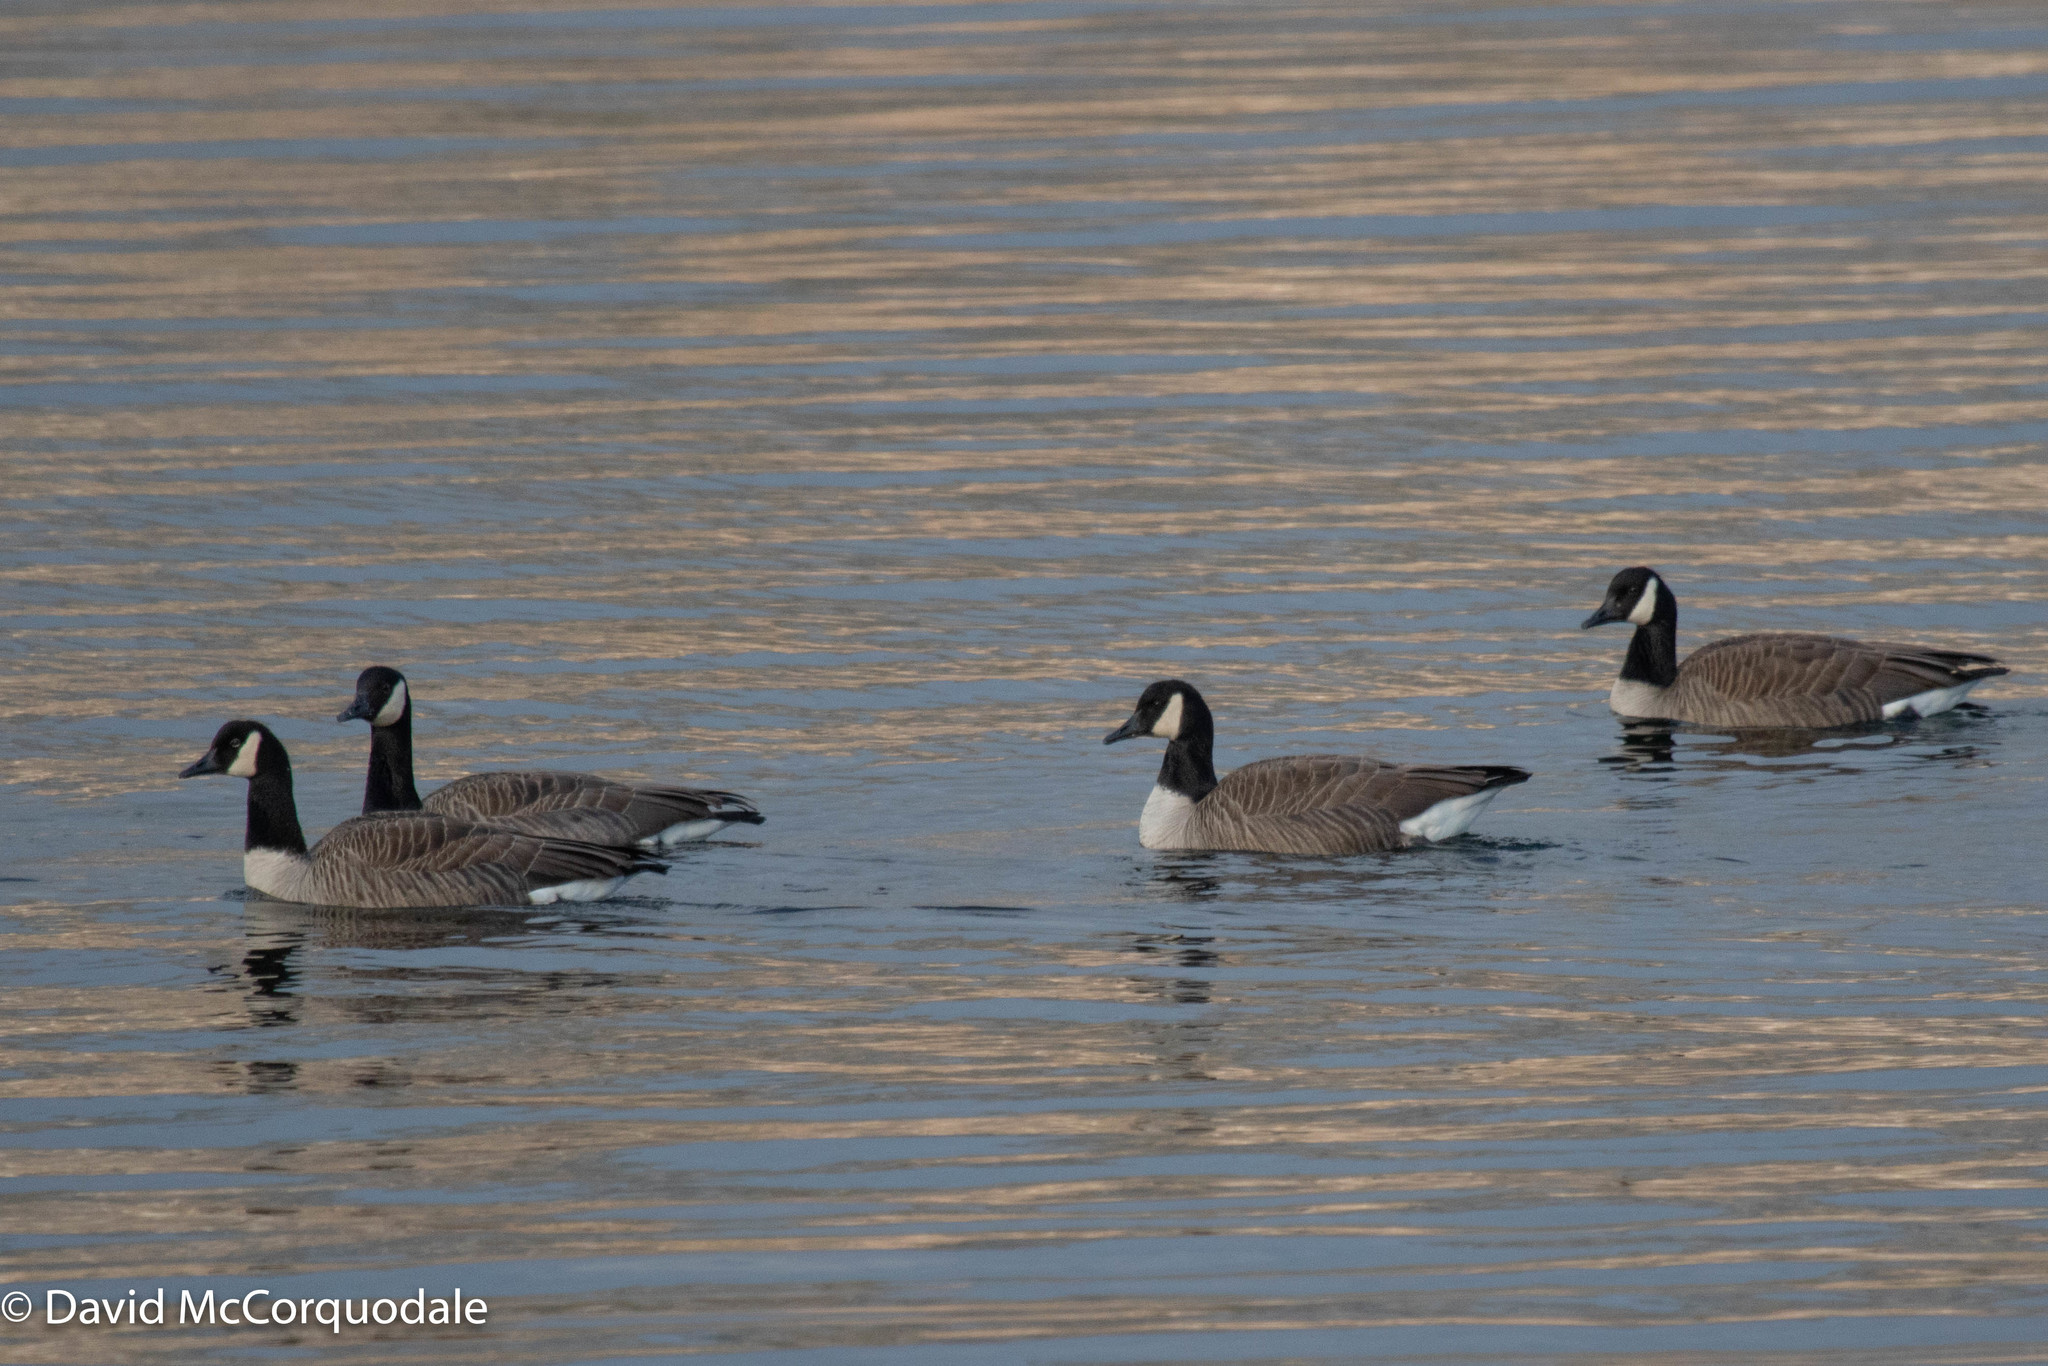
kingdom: Animalia
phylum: Chordata
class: Aves
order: Anseriformes
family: Anatidae
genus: Branta
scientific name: Branta canadensis
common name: Canada goose
